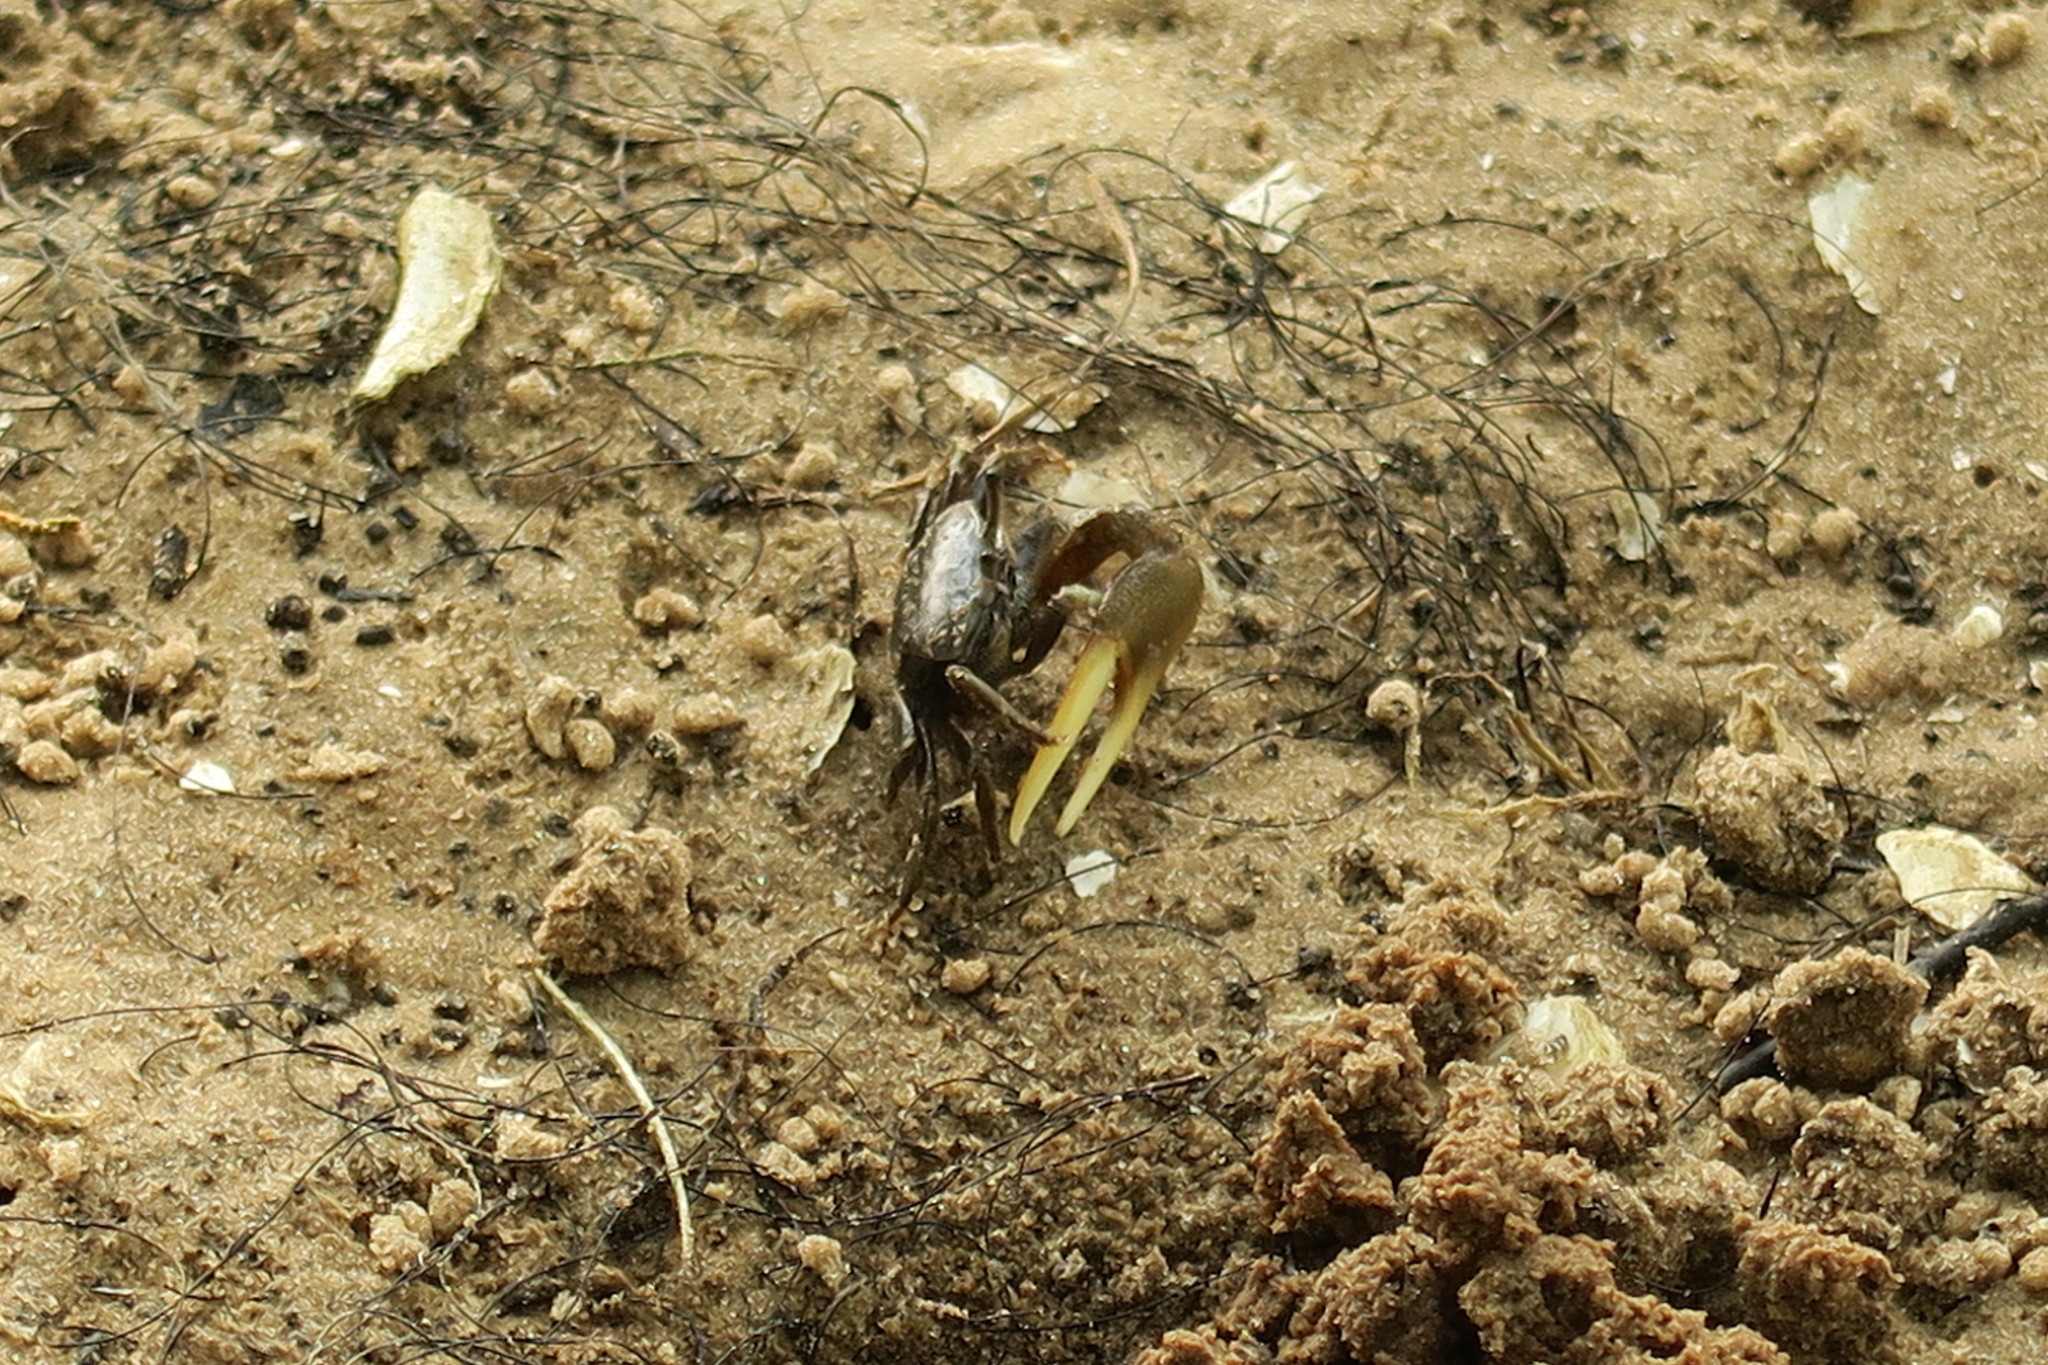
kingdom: Animalia
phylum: Arthropoda
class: Malacostraca
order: Decapoda
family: Ocypodidae
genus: Leptuca
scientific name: Leptuca pugilator
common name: Atlantic sand fiddler crab
